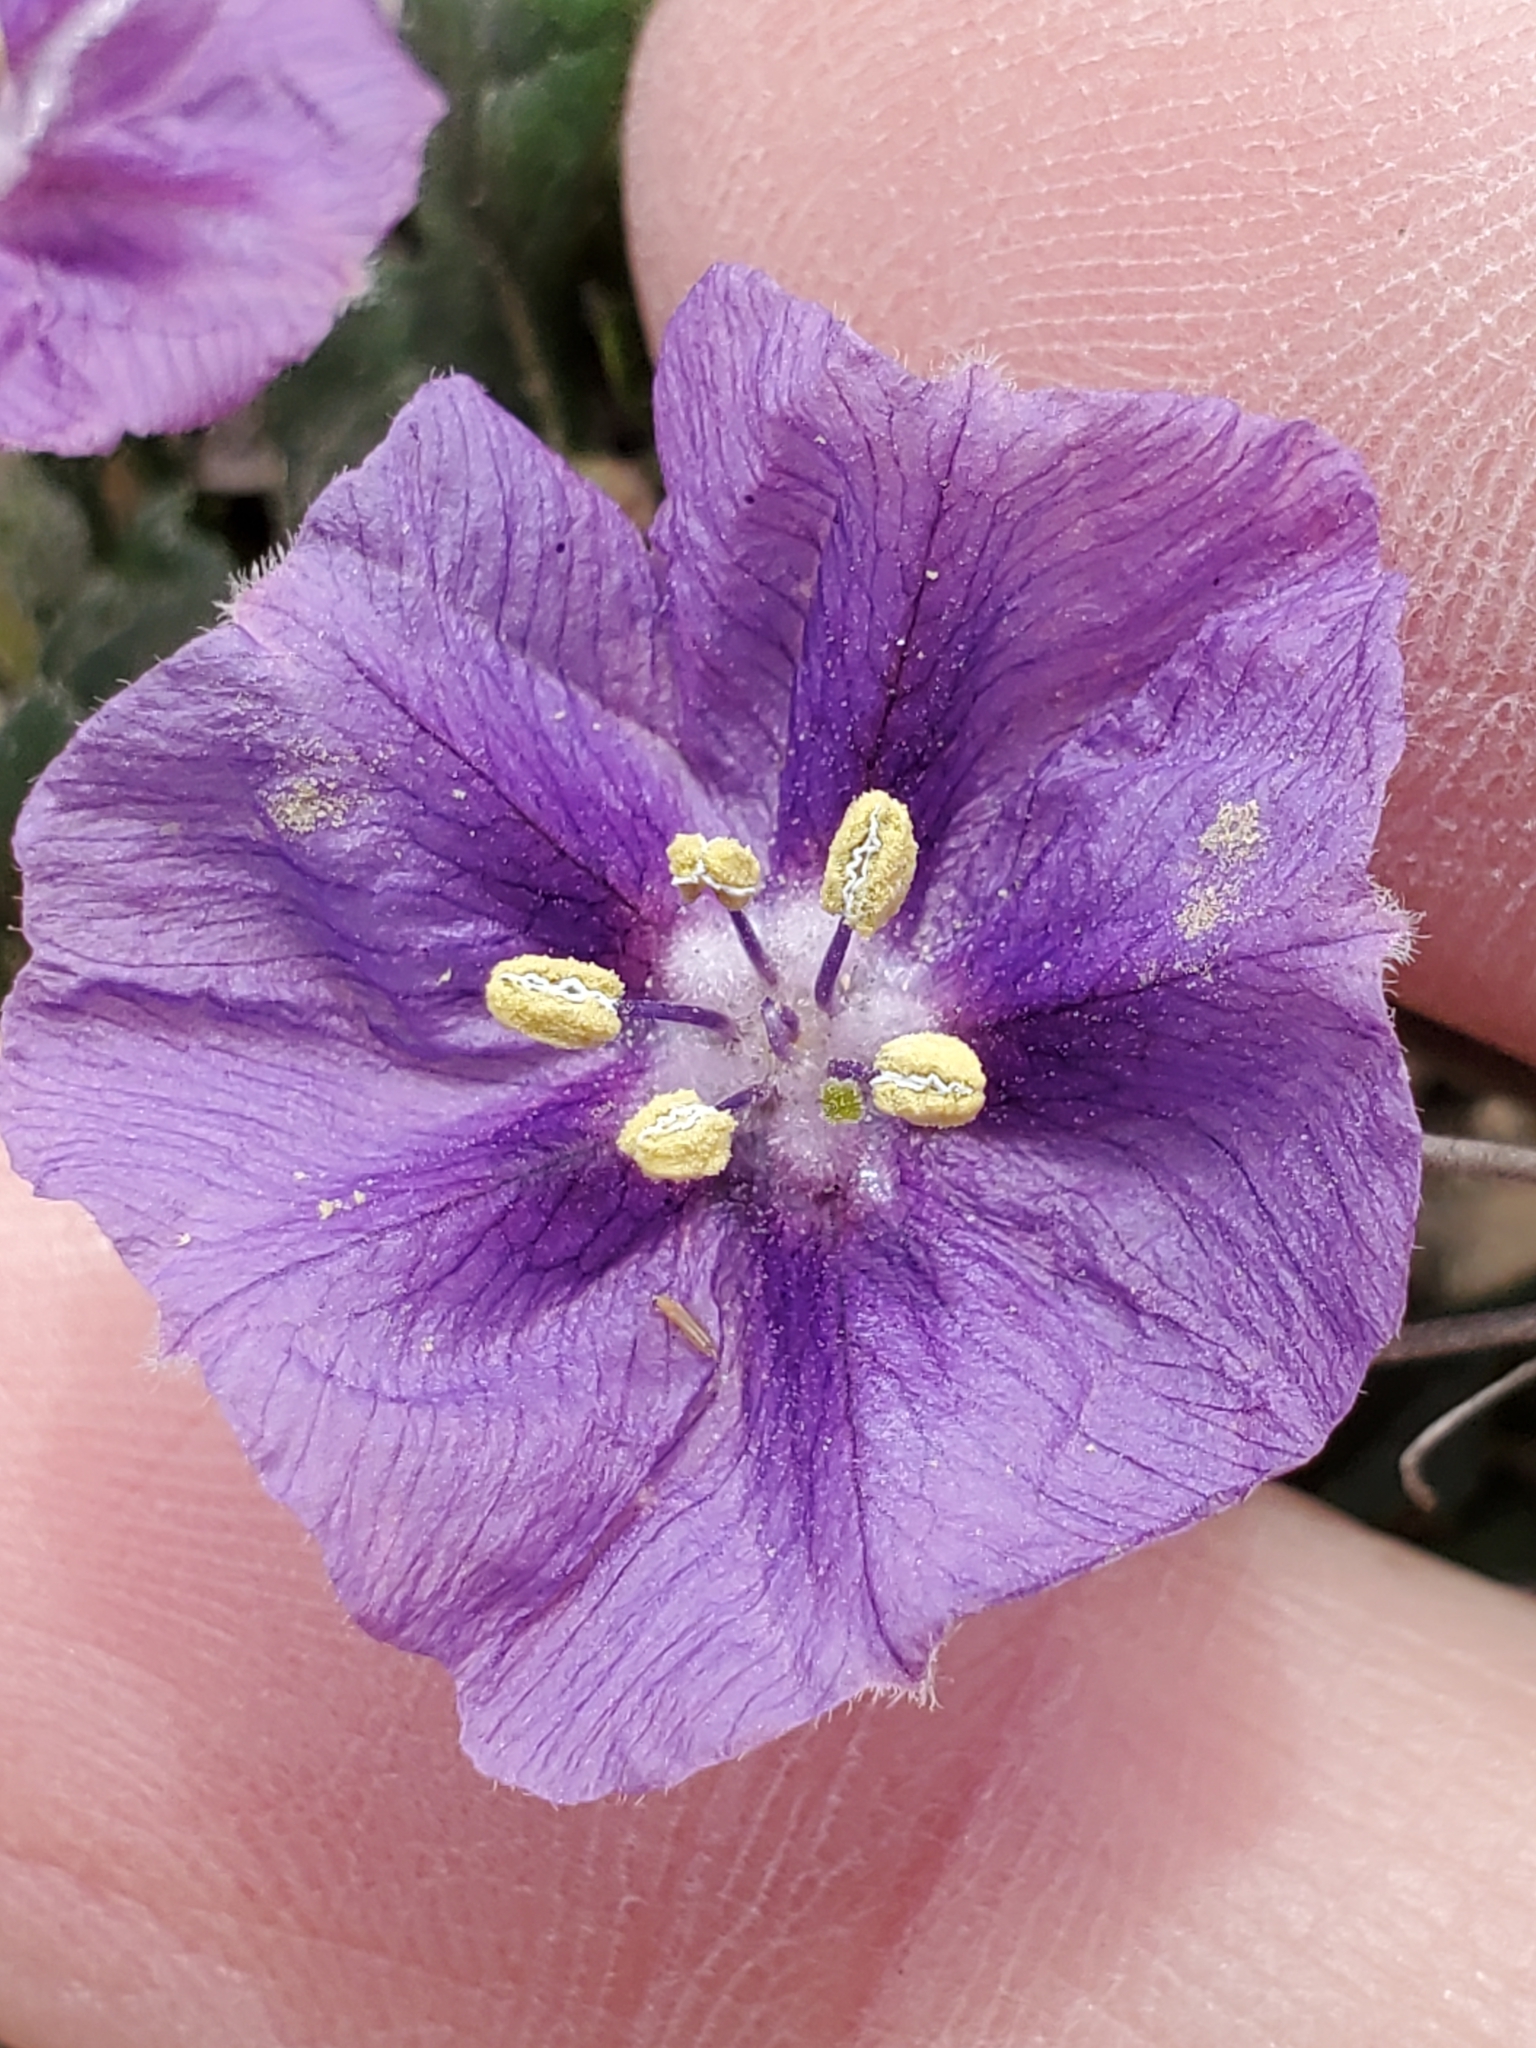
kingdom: Plantae
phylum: Tracheophyta
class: Magnoliopsida
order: Solanales
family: Solanaceae
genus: Quincula
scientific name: Quincula lobata
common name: Purple-ground-cherry
